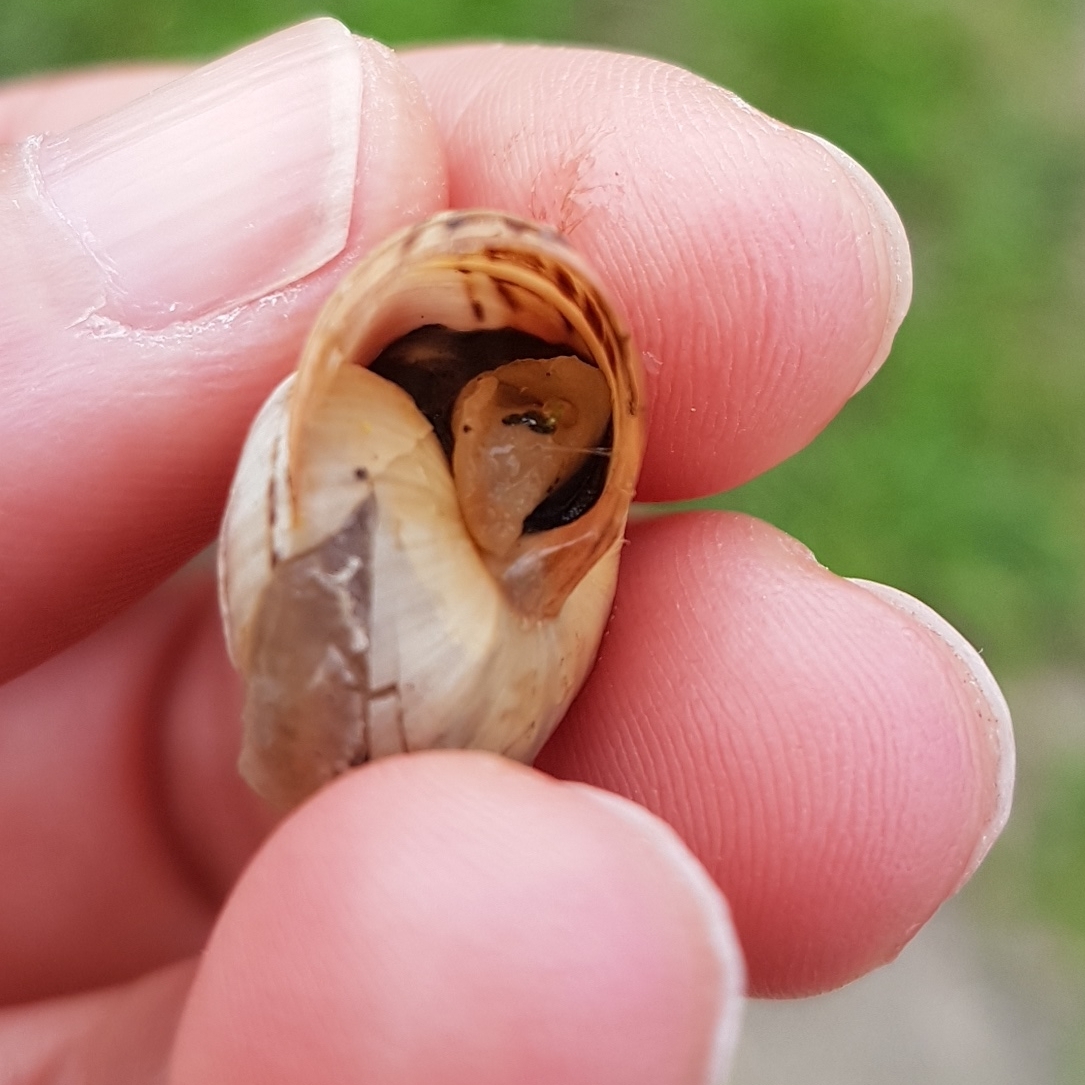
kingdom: Animalia
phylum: Mollusca
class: Gastropoda
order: Stylommatophora
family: Helicidae
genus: Theba
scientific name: Theba pisana
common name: White snail
